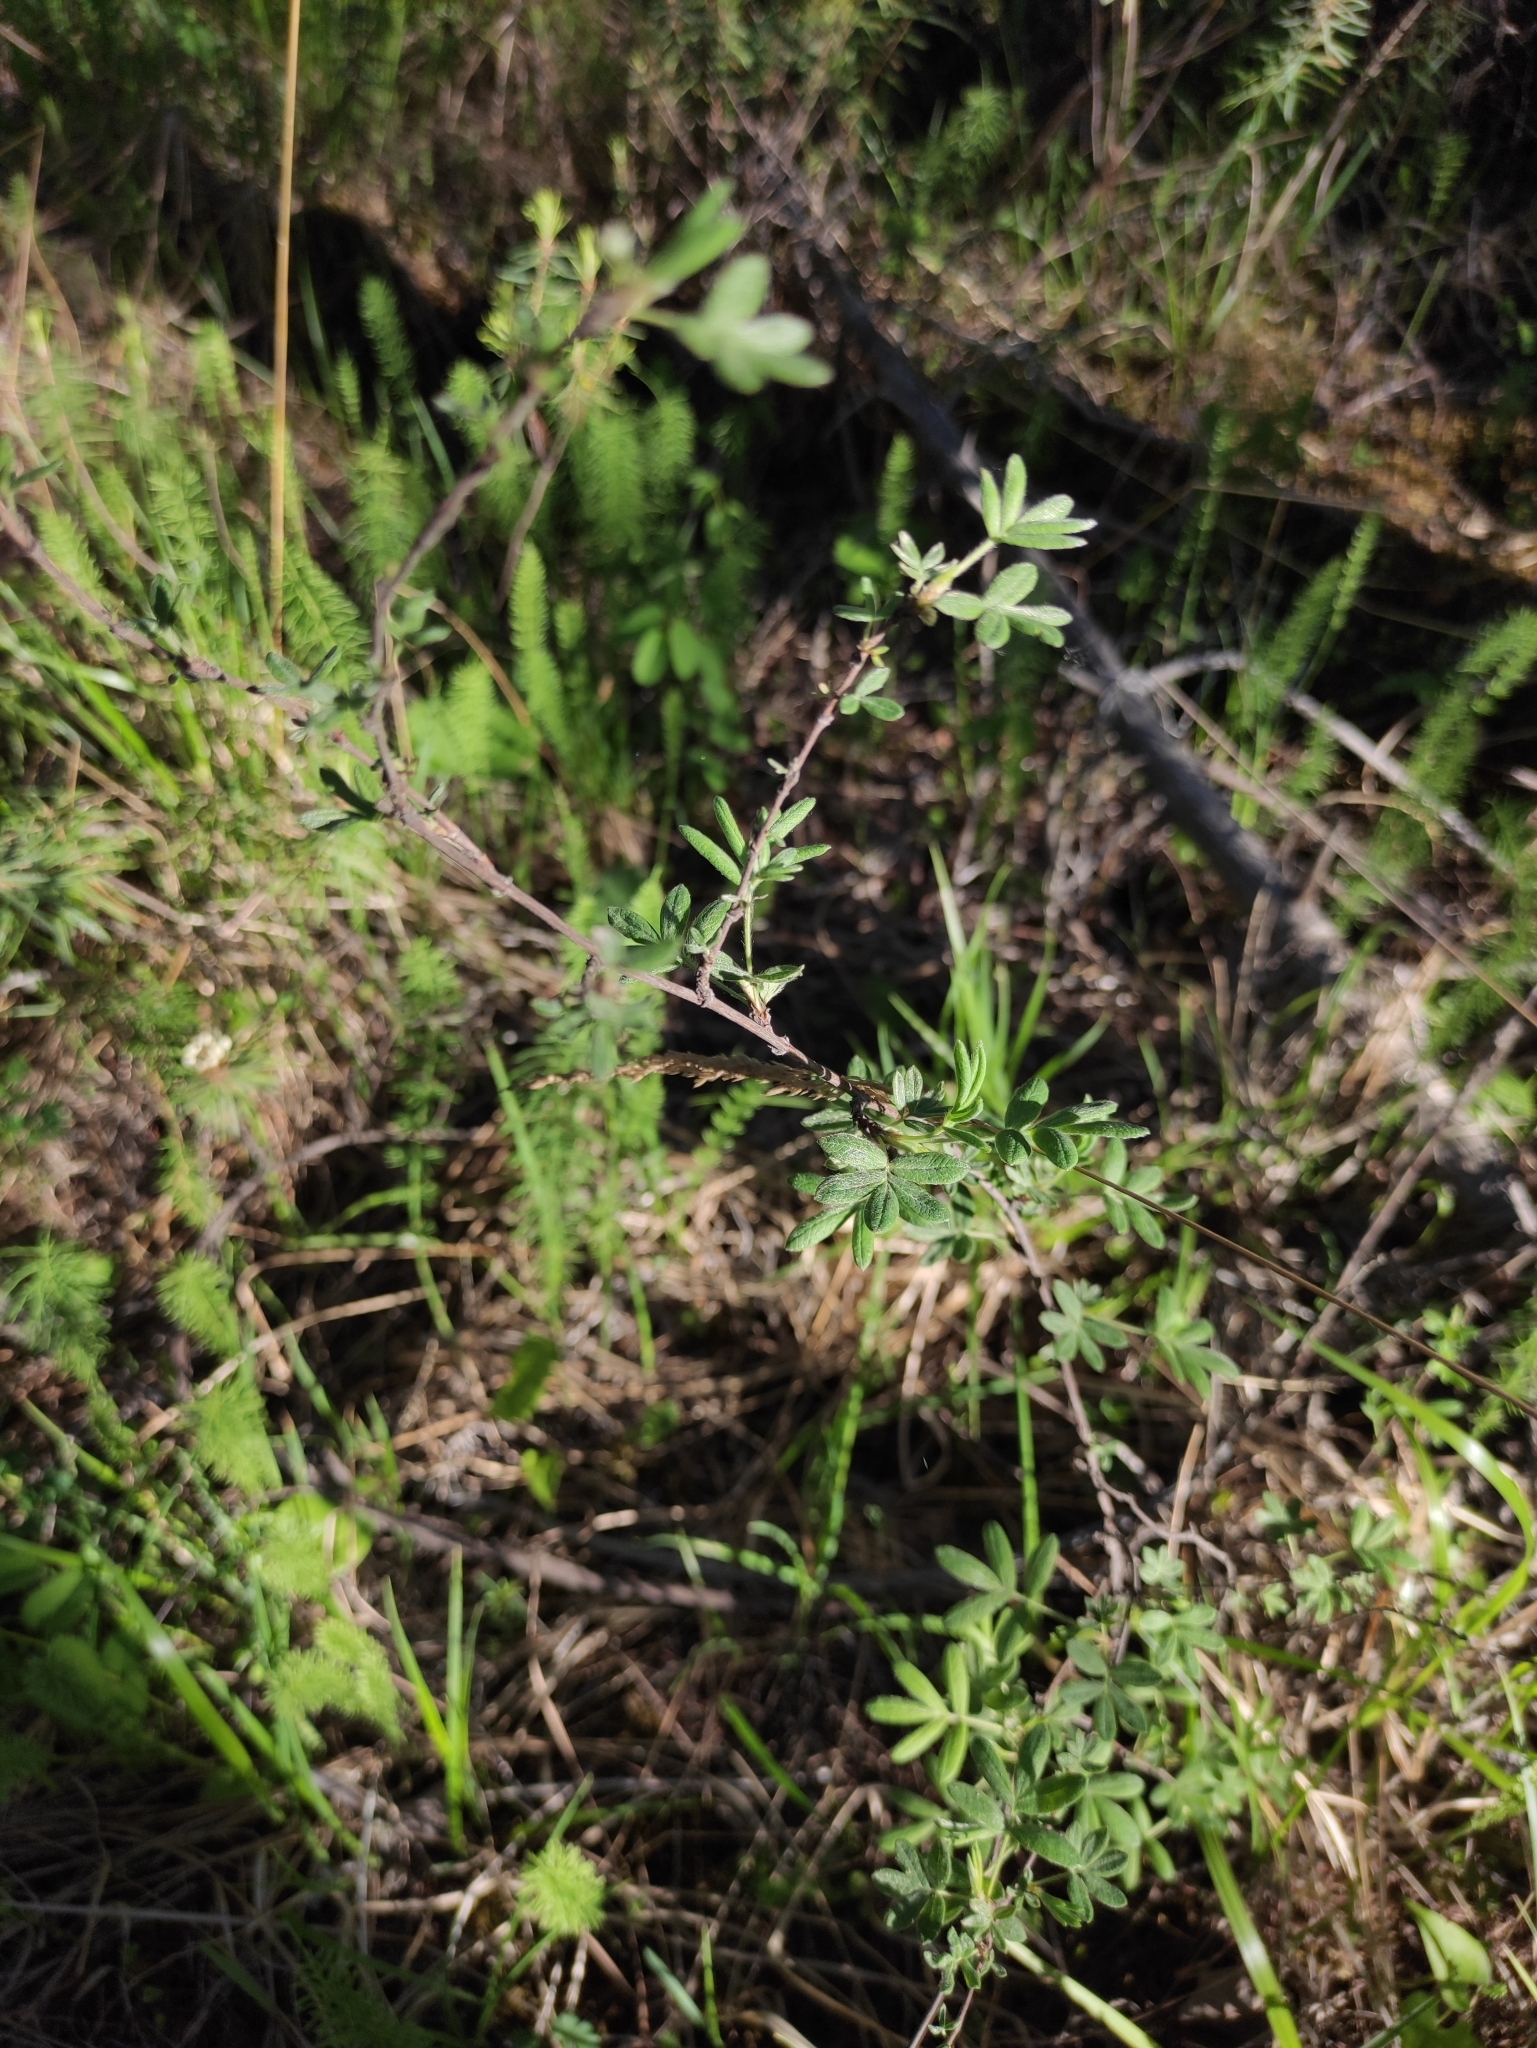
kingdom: Plantae
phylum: Tracheophyta
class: Magnoliopsida
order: Rosales
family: Rosaceae
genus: Dasiphora
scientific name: Dasiphora fruticosa
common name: Shrubby cinquefoil
